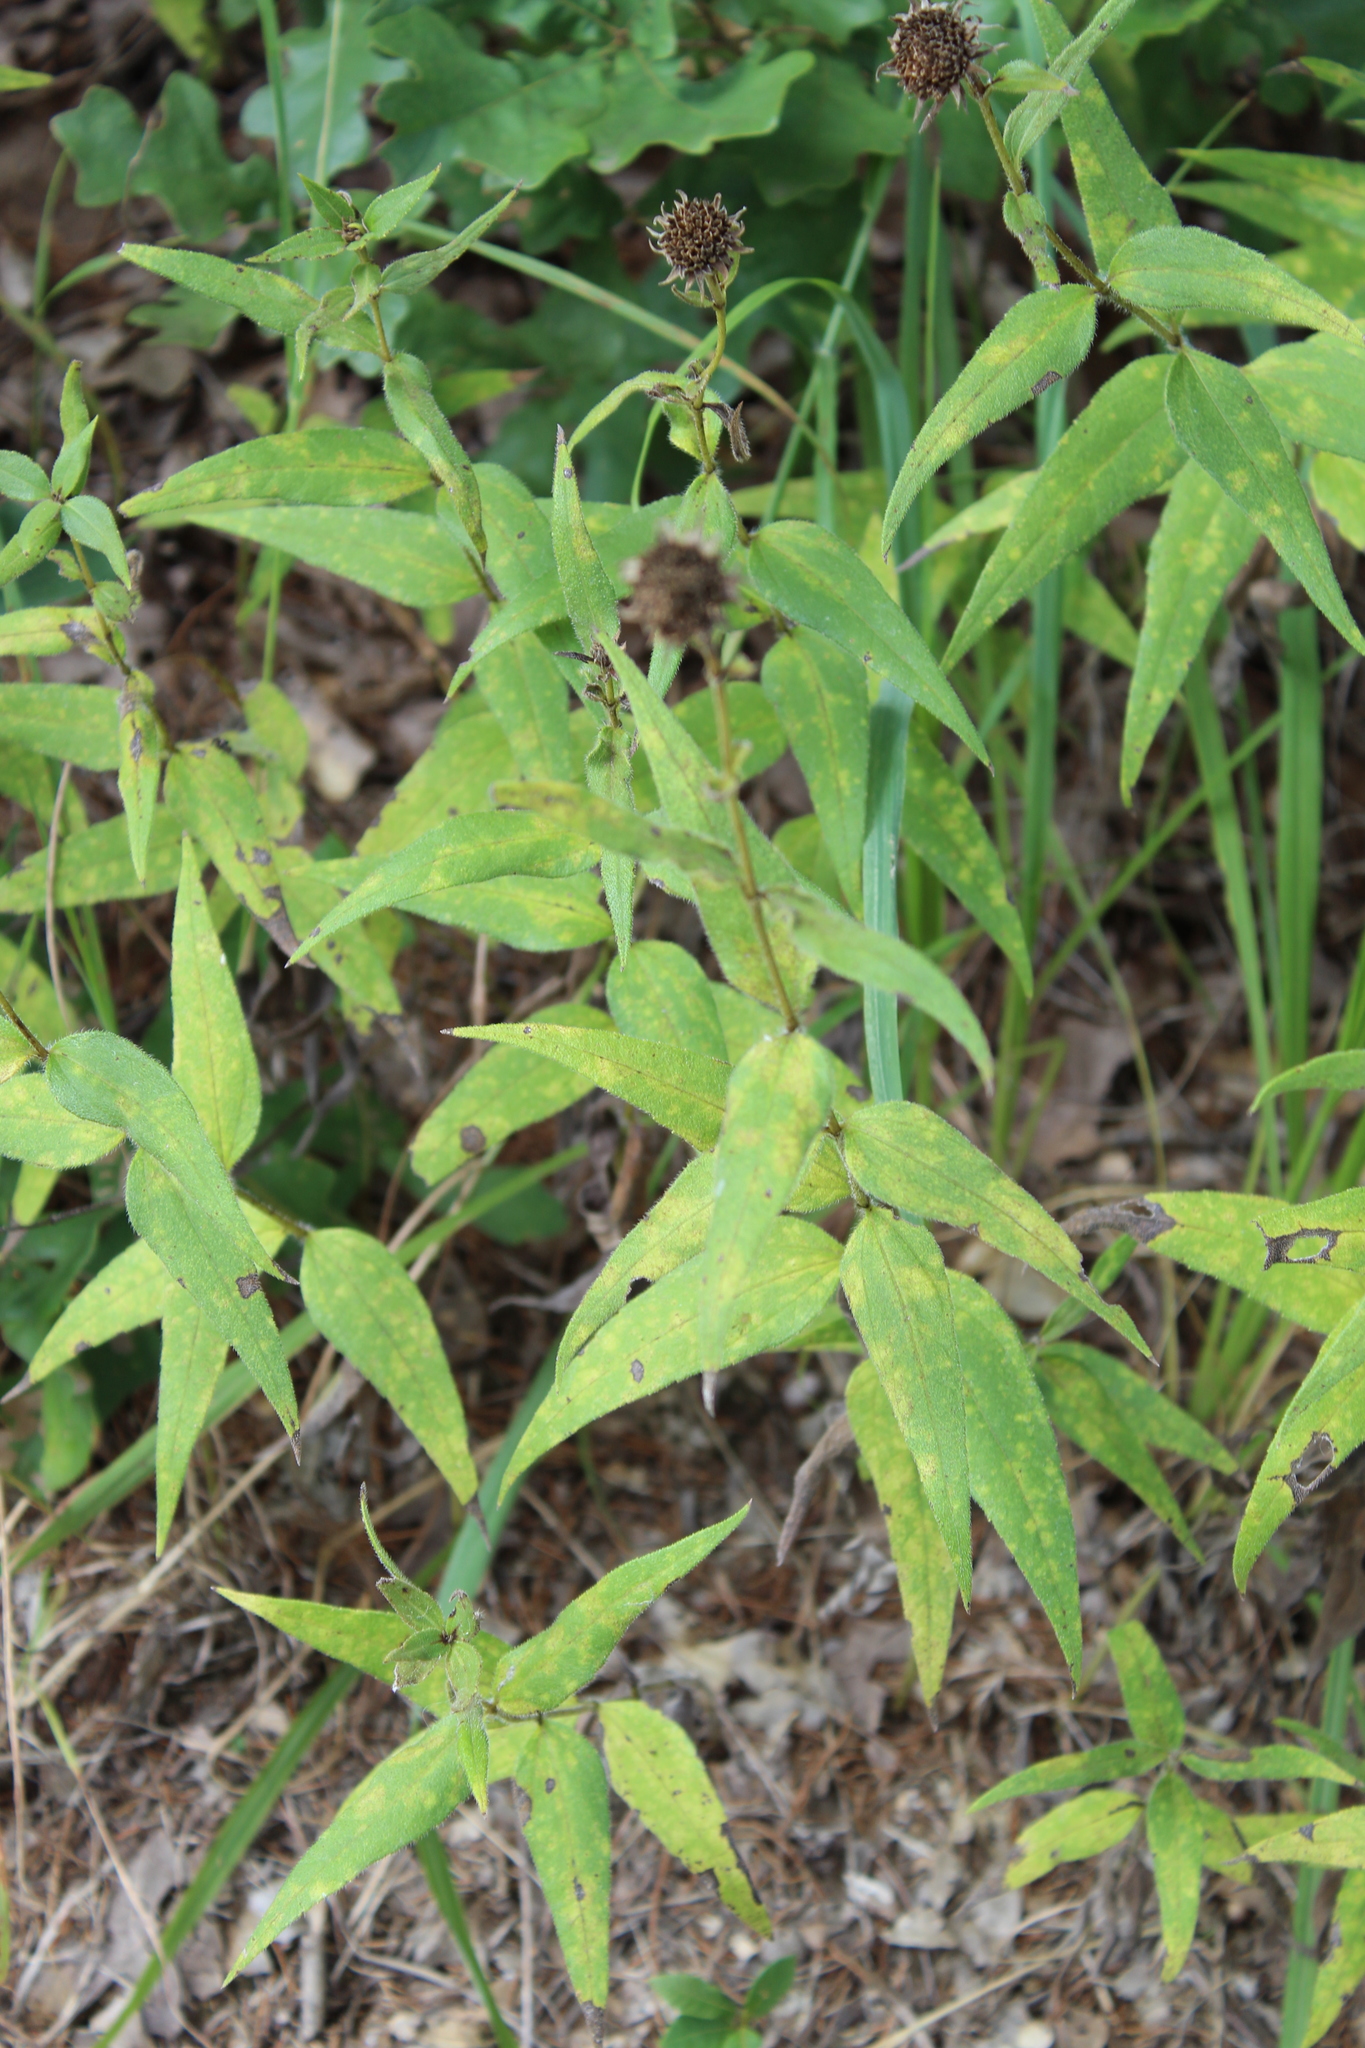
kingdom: Plantae
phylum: Tracheophyta
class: Magnoliopsida
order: Asterales
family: Asteraceae
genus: Helianthus
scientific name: Helianthus hirsutus
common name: Hairy sunflower
